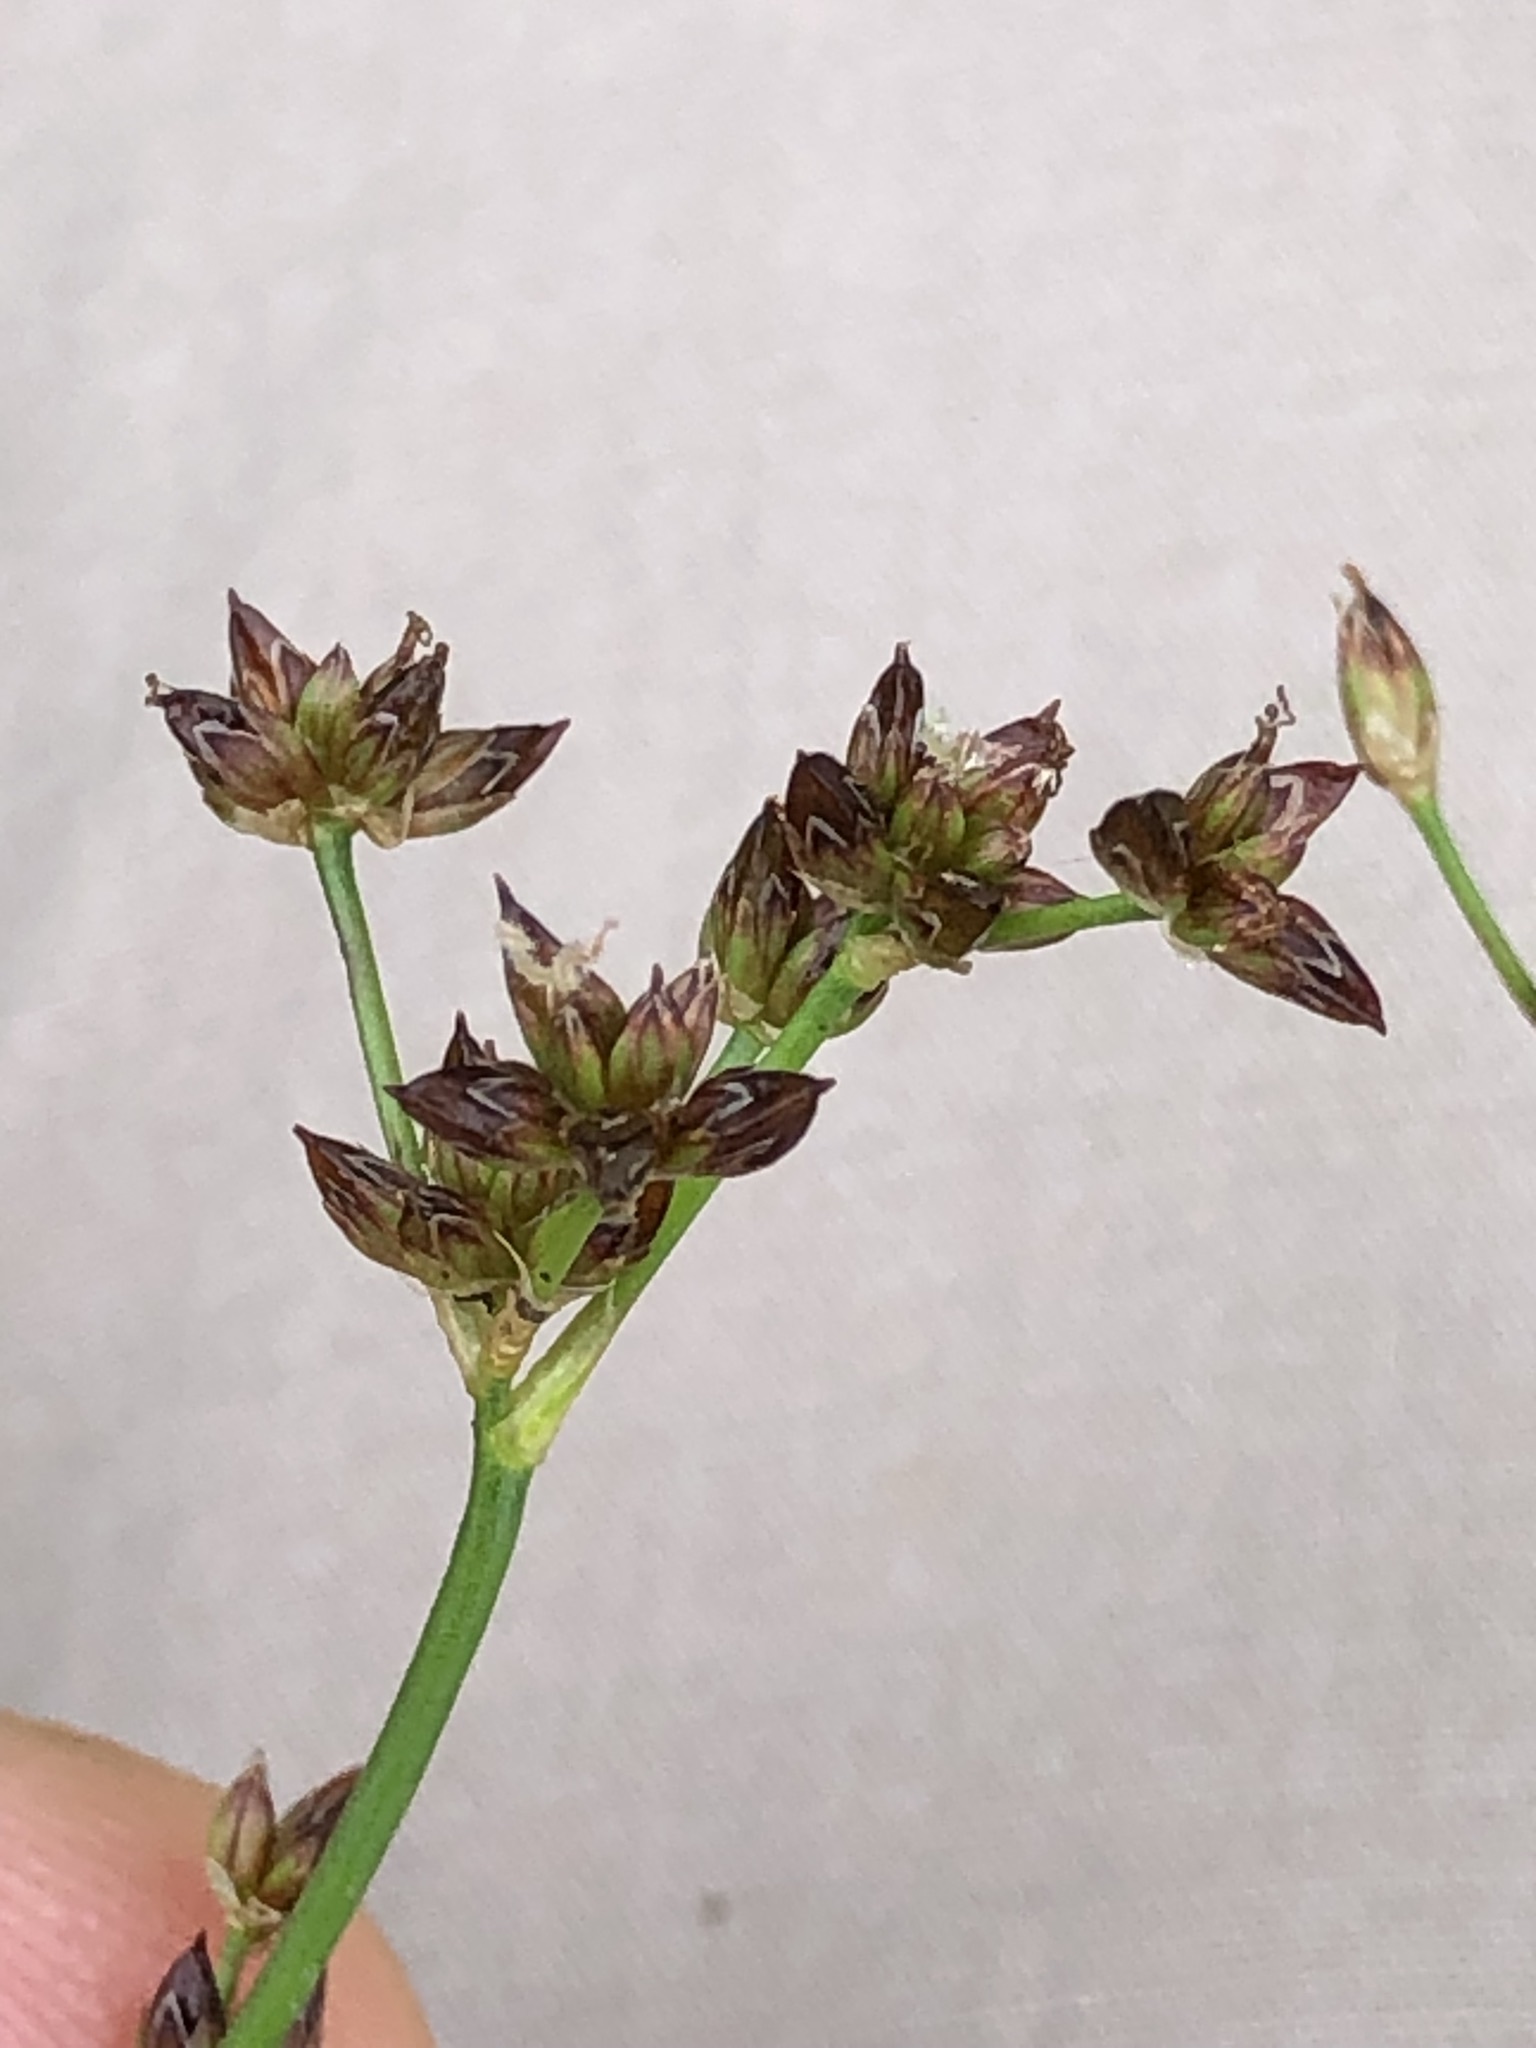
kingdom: Plantae
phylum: Tracheophyta
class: Liliopsida
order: Poales
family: Juncaceae
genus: Juncus
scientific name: Juncus articulatus
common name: Jointed rush
